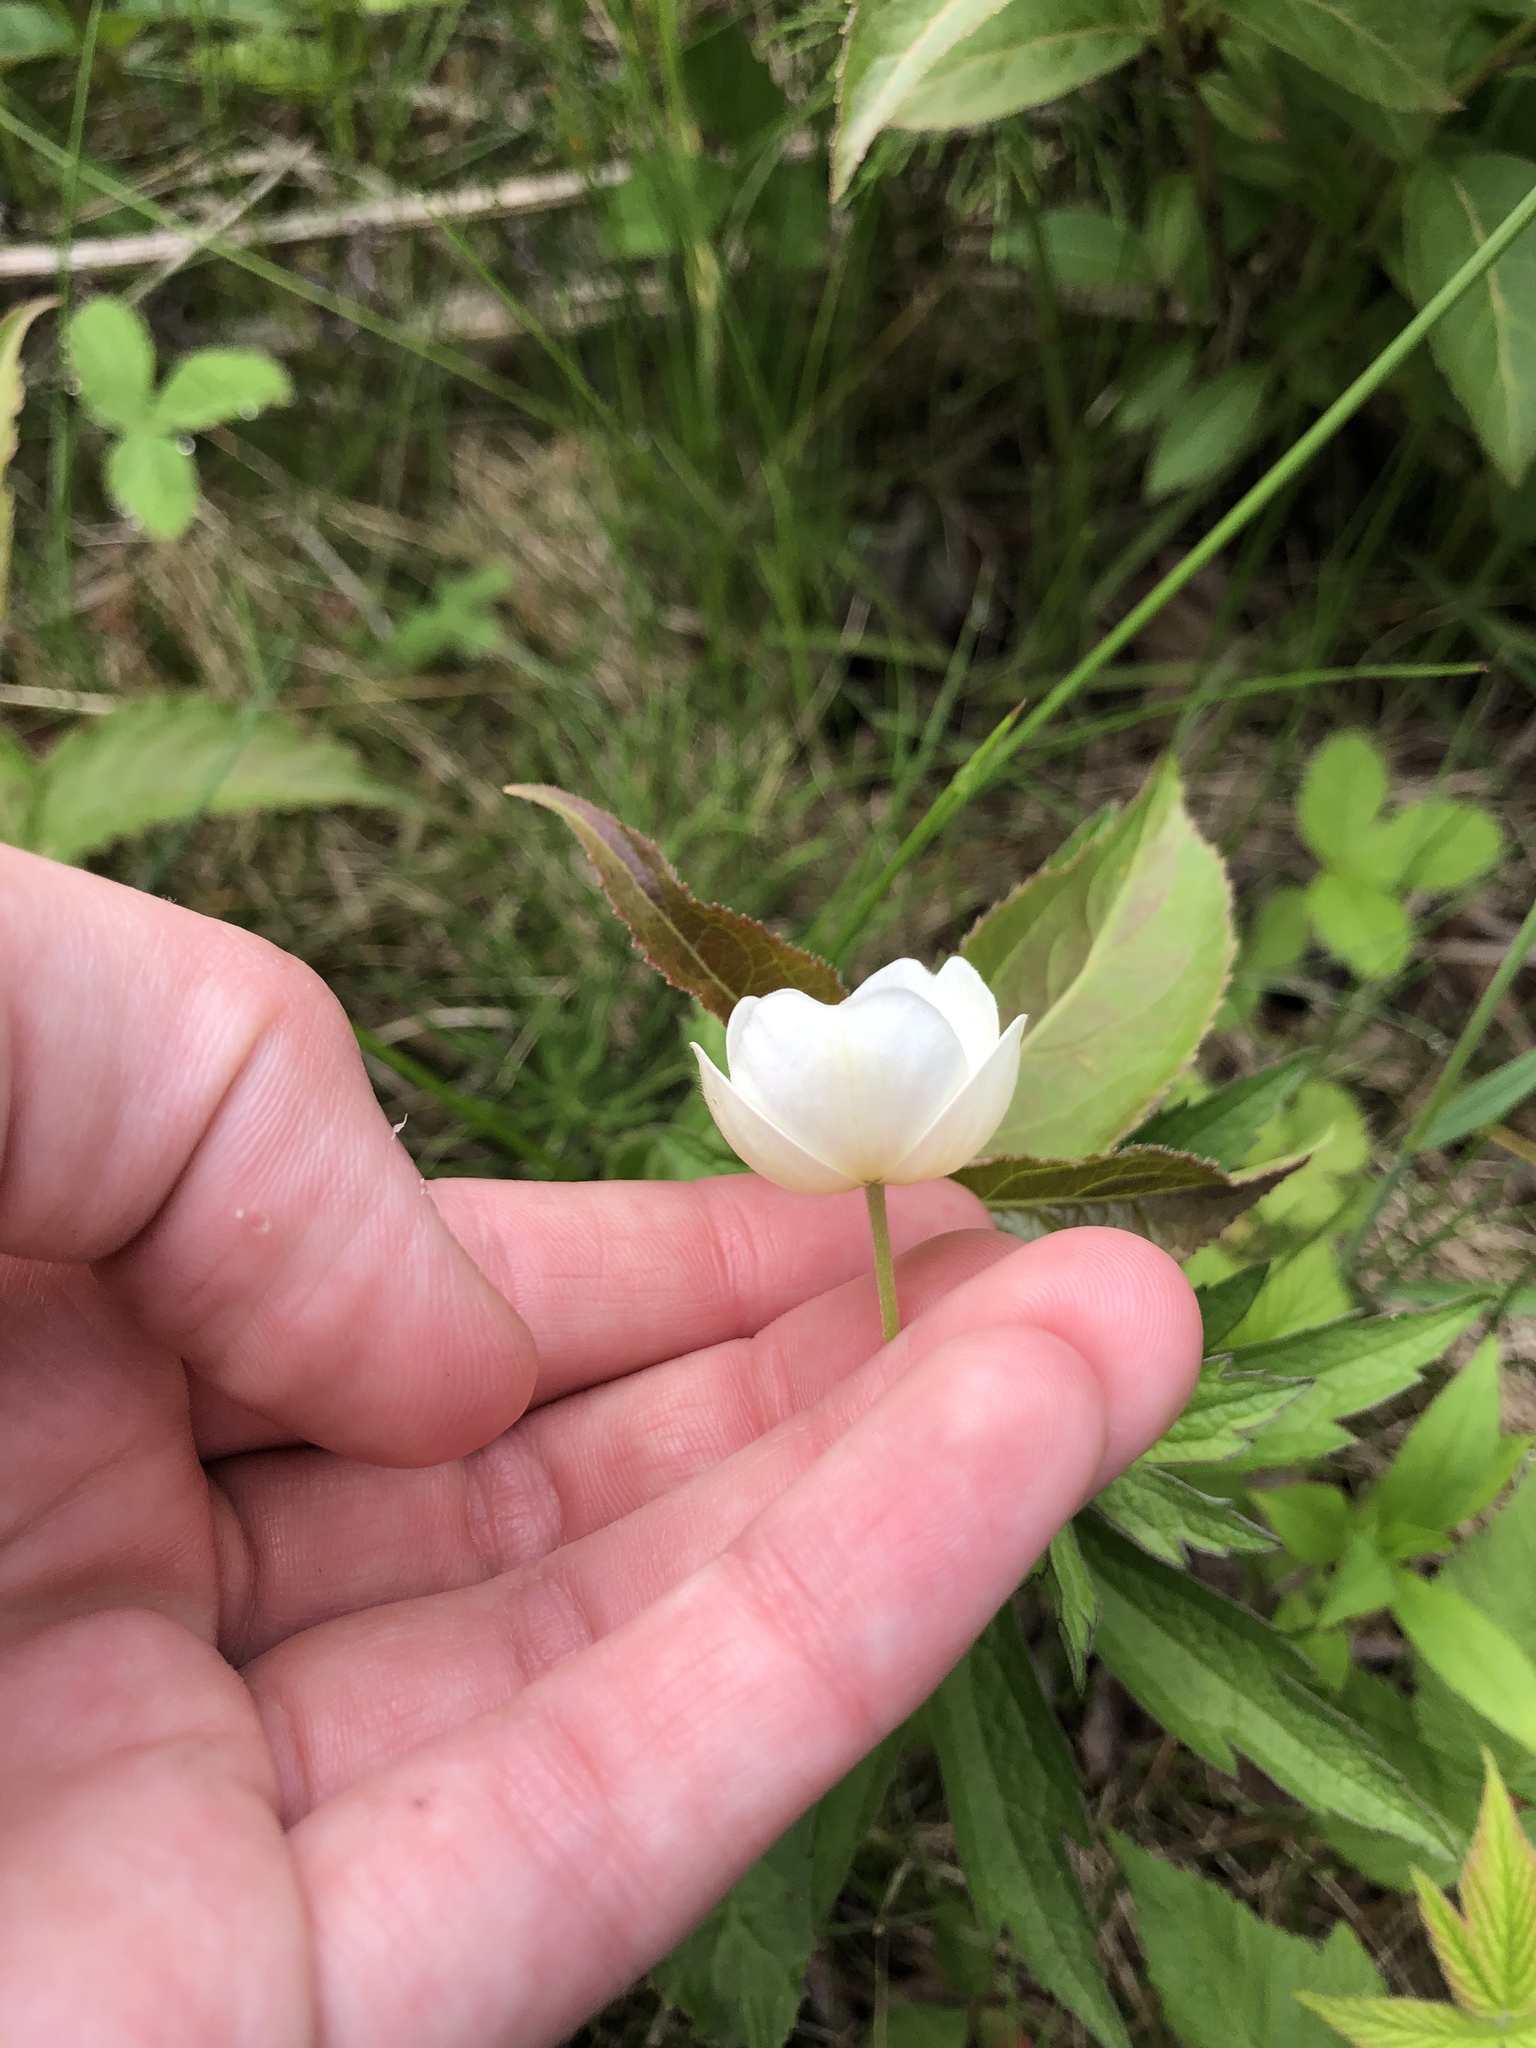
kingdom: Plantae
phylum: Tracheophyta
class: Magnoliopsida
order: Ranunculales
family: Ranunculaceae
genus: Anemonastrum
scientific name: Anemonastrum canadense
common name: Canada anemone
